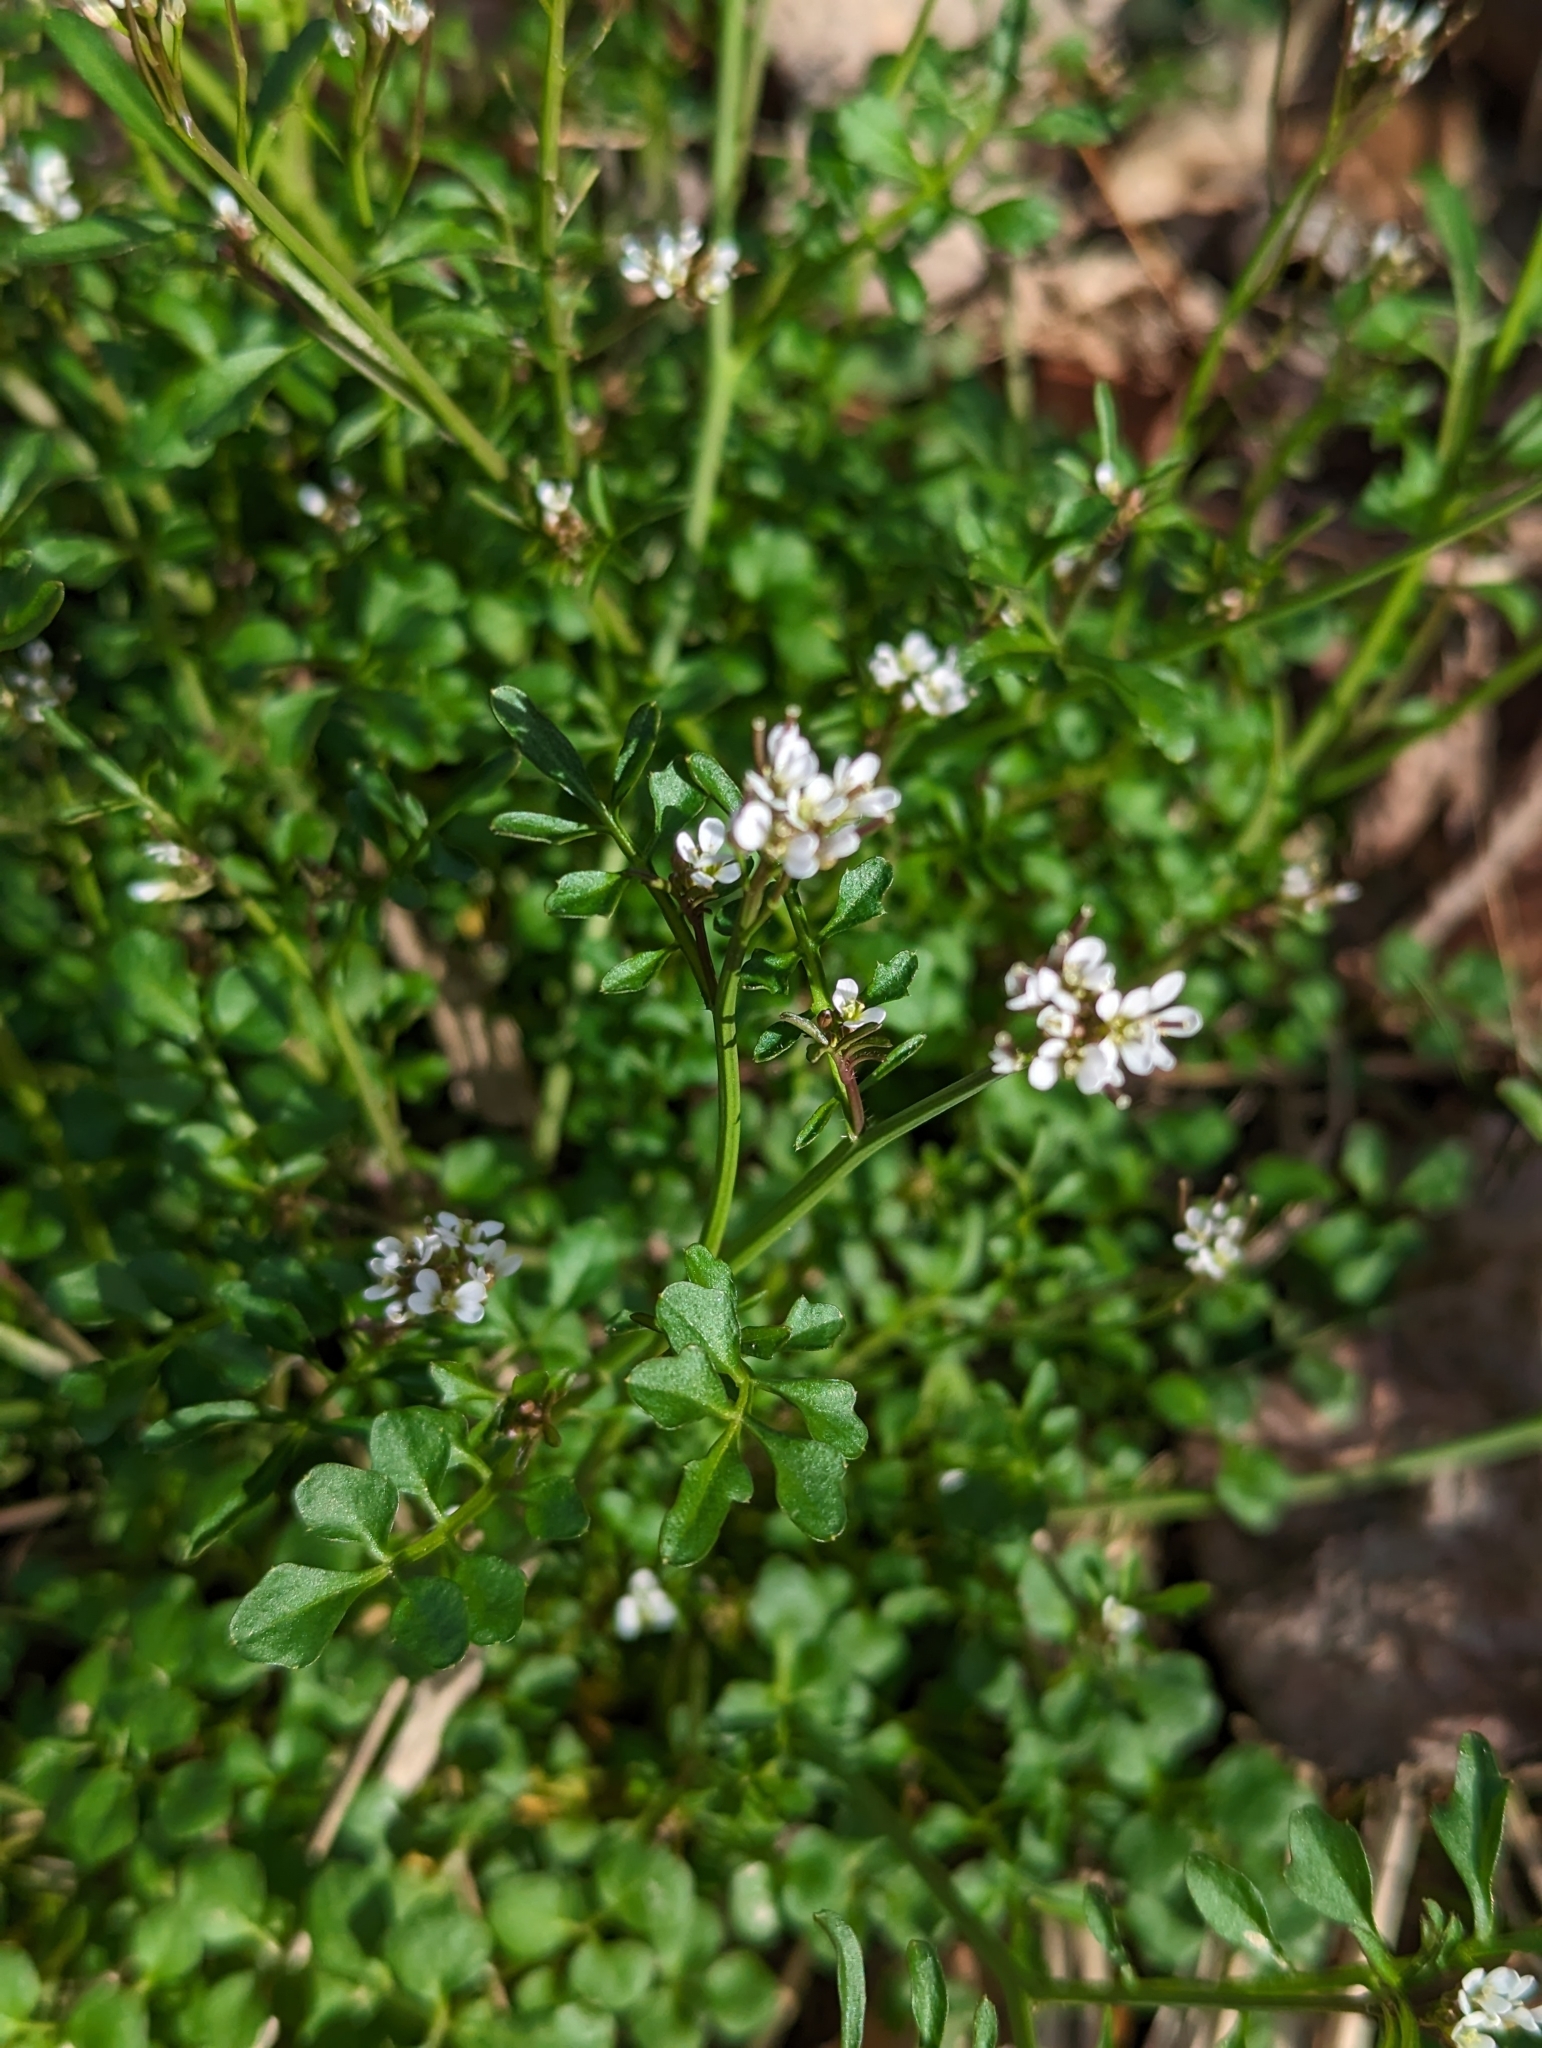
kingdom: Plantae
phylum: Tracheophyta
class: Magnoliopsida
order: Brassicales
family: Brassicaceae
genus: Cardamine
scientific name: Cardamine hirsuta
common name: Hairy bittercress
